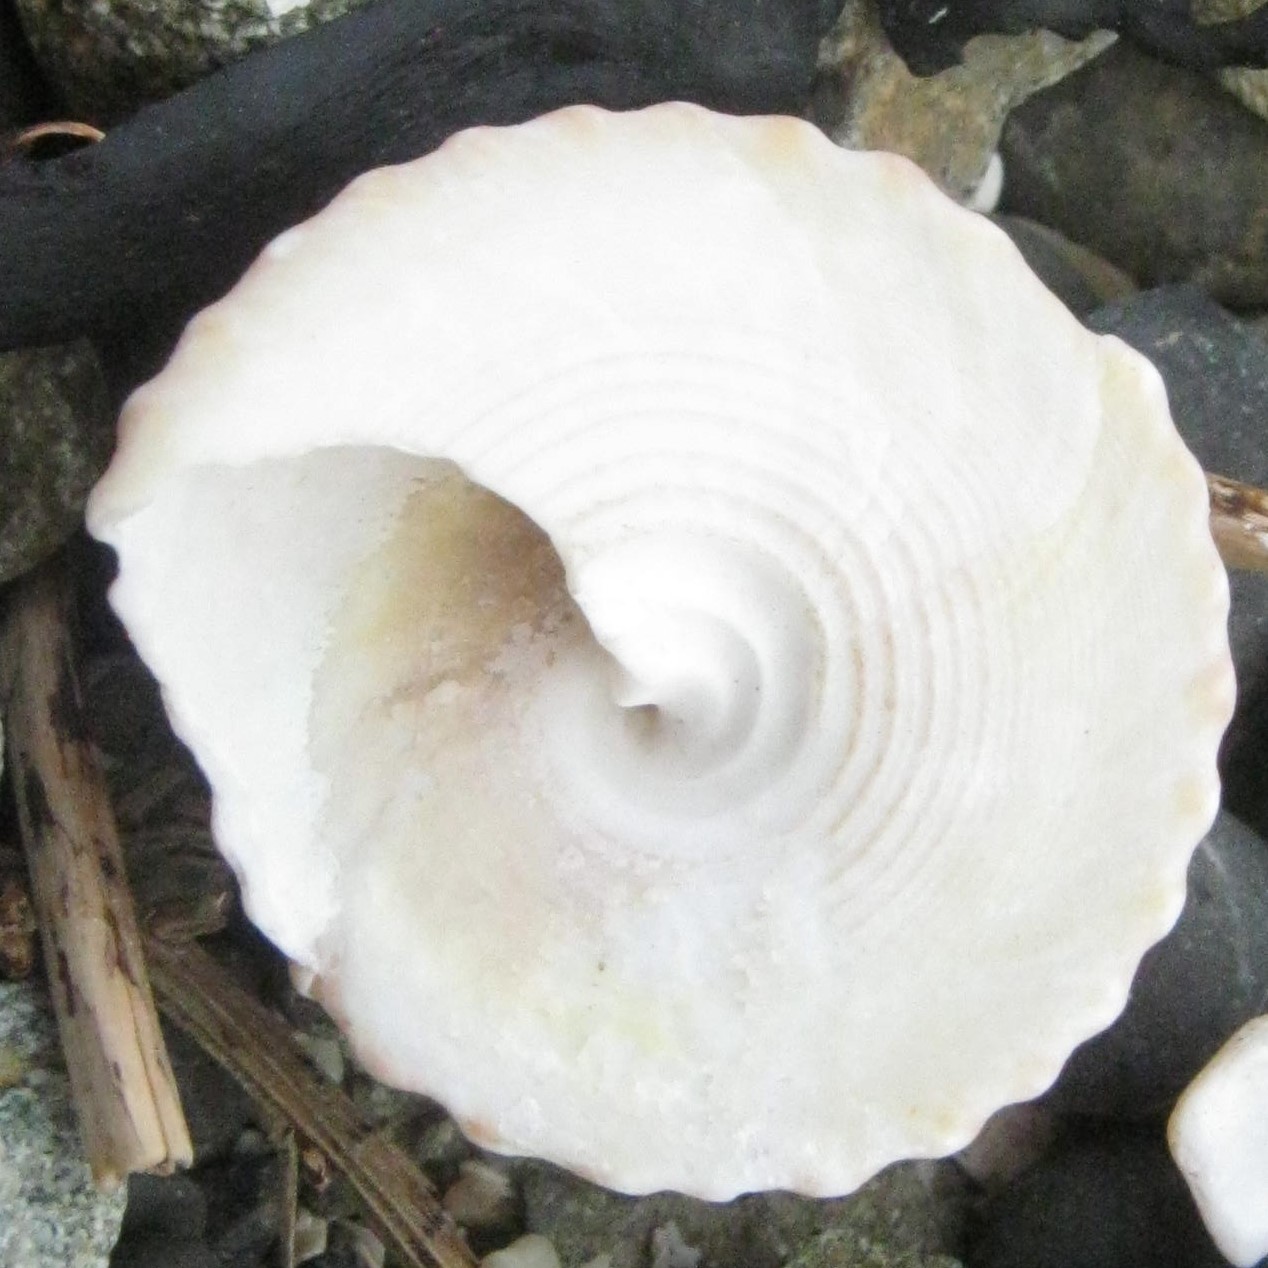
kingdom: Animalia
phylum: Mollusca
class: Gastropoda
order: Trochida
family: Trochidae
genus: Coelotrochus
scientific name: Coelotrochus viridis
